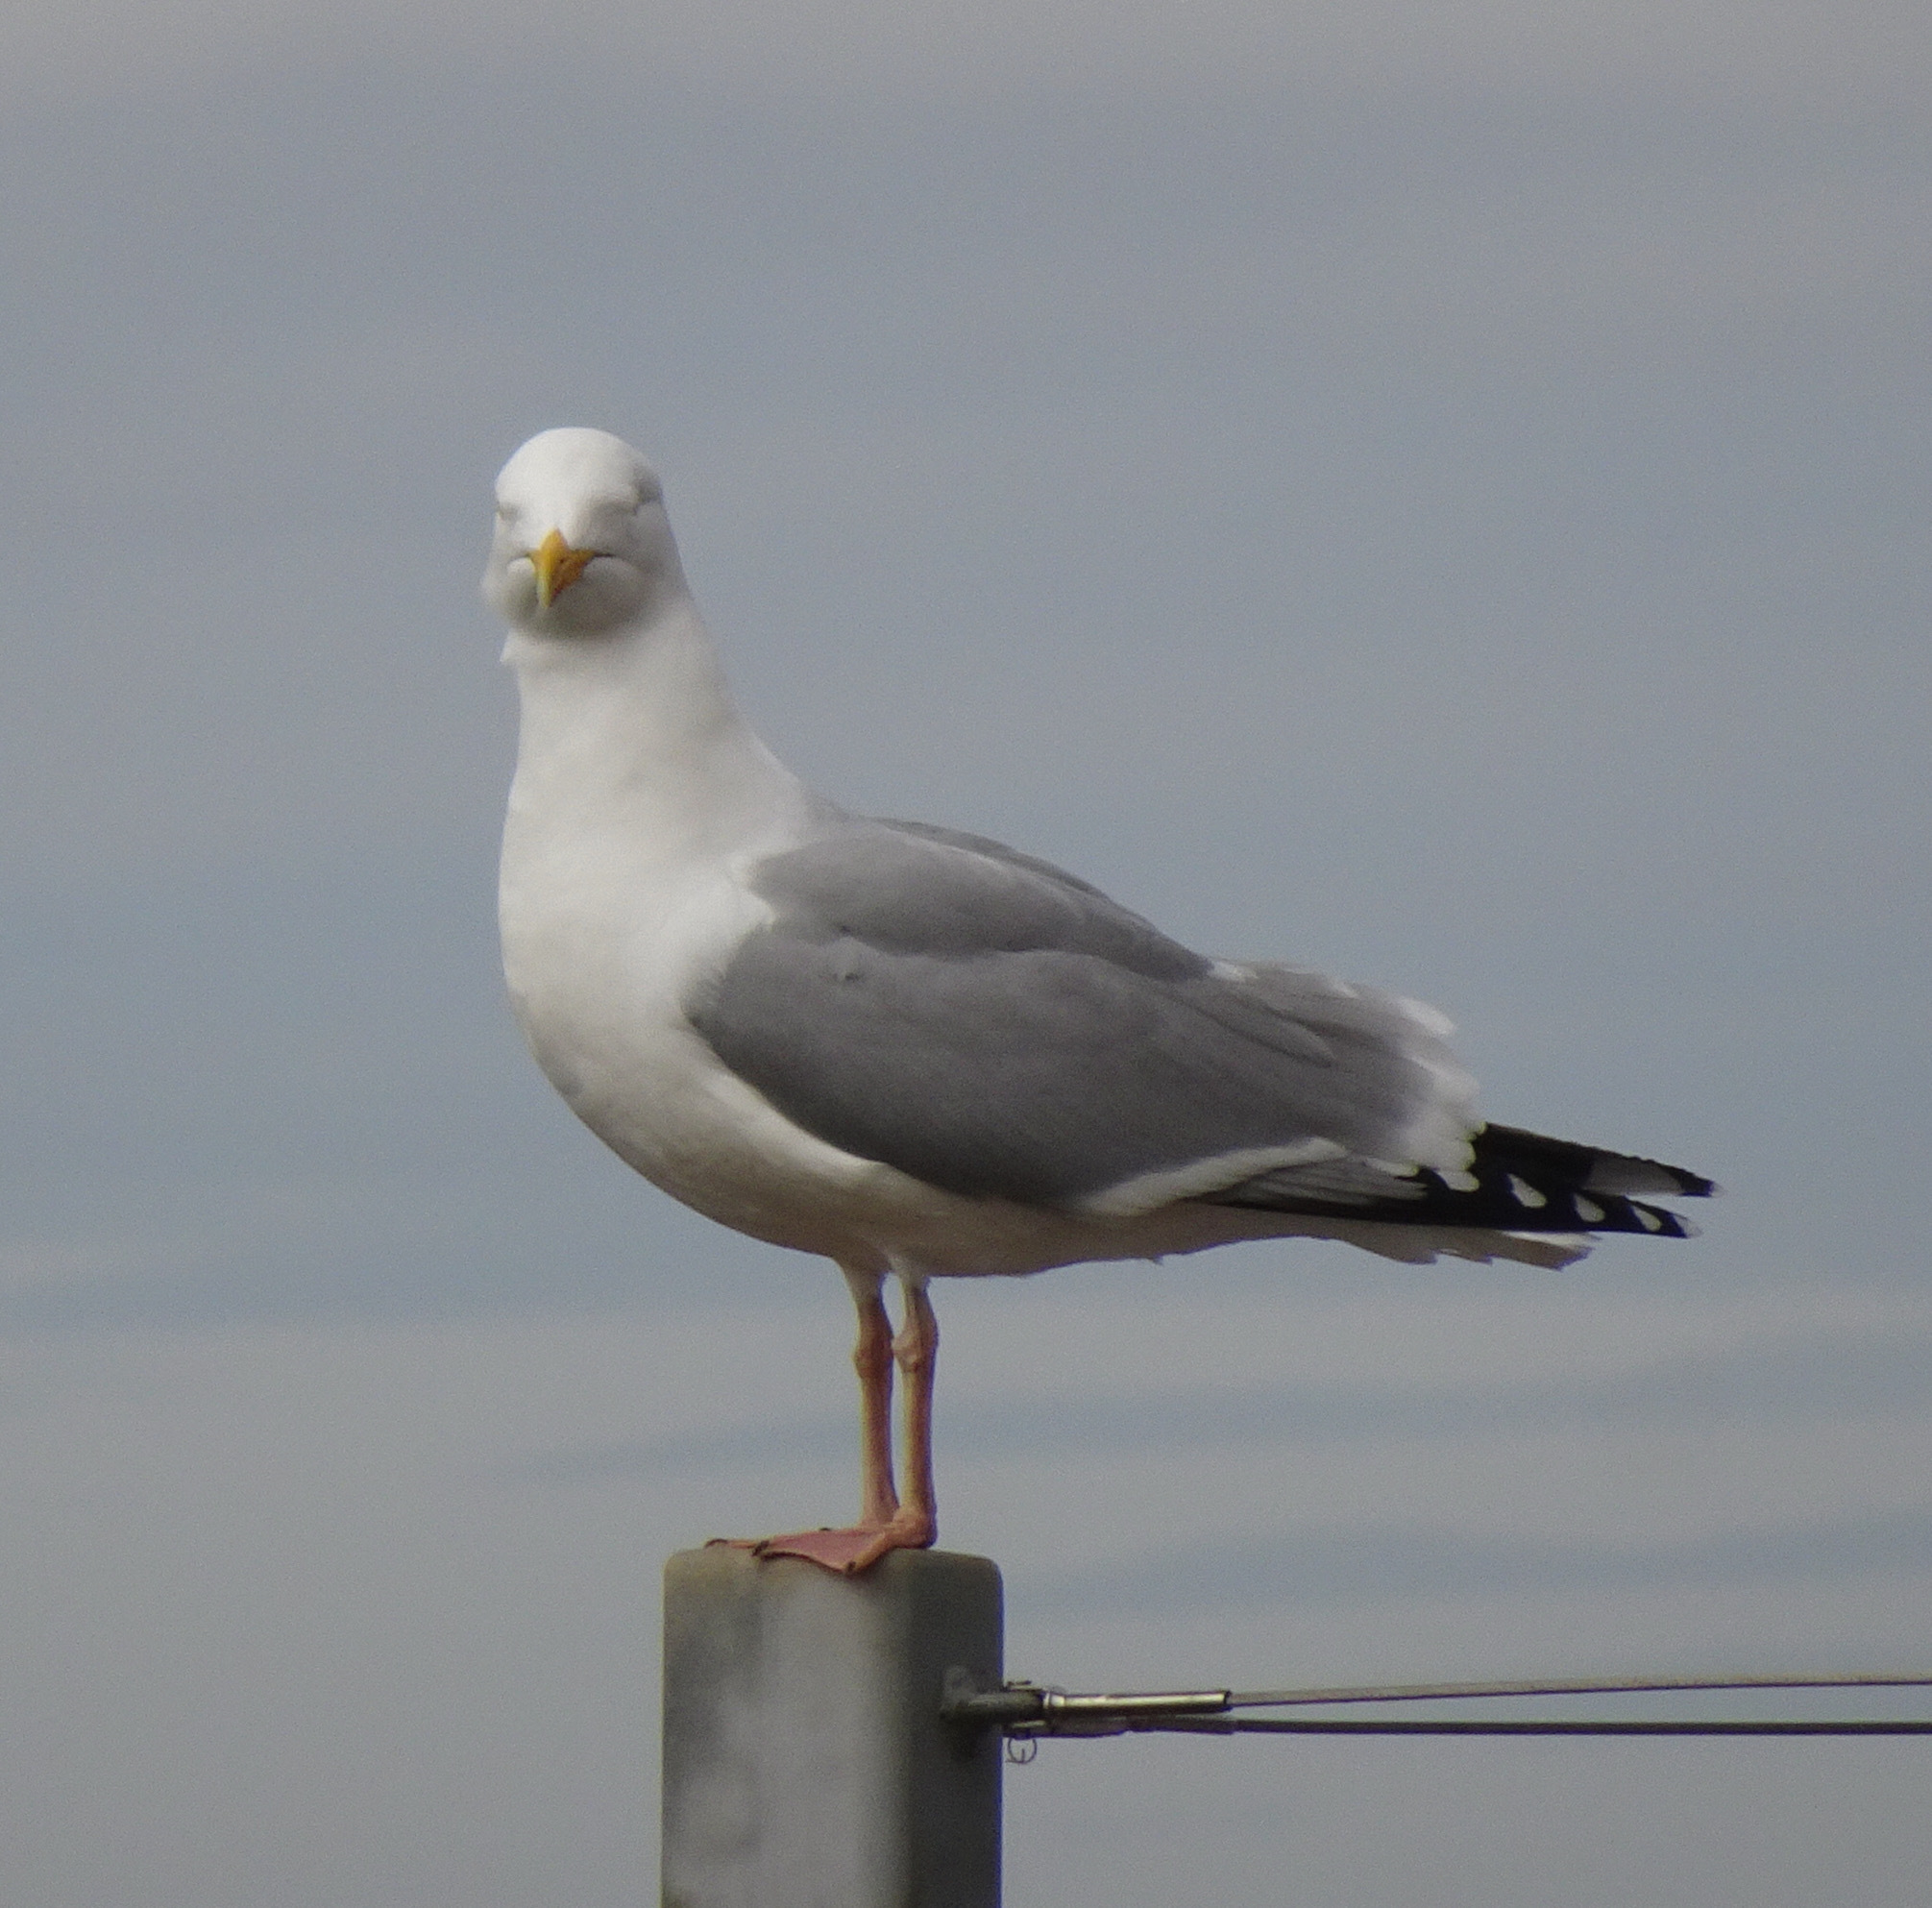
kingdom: Animalia
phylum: Chordata
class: Aves
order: Charadriiformes
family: Laridae
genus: Larus
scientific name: Larus argentatus
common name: Herring gull
